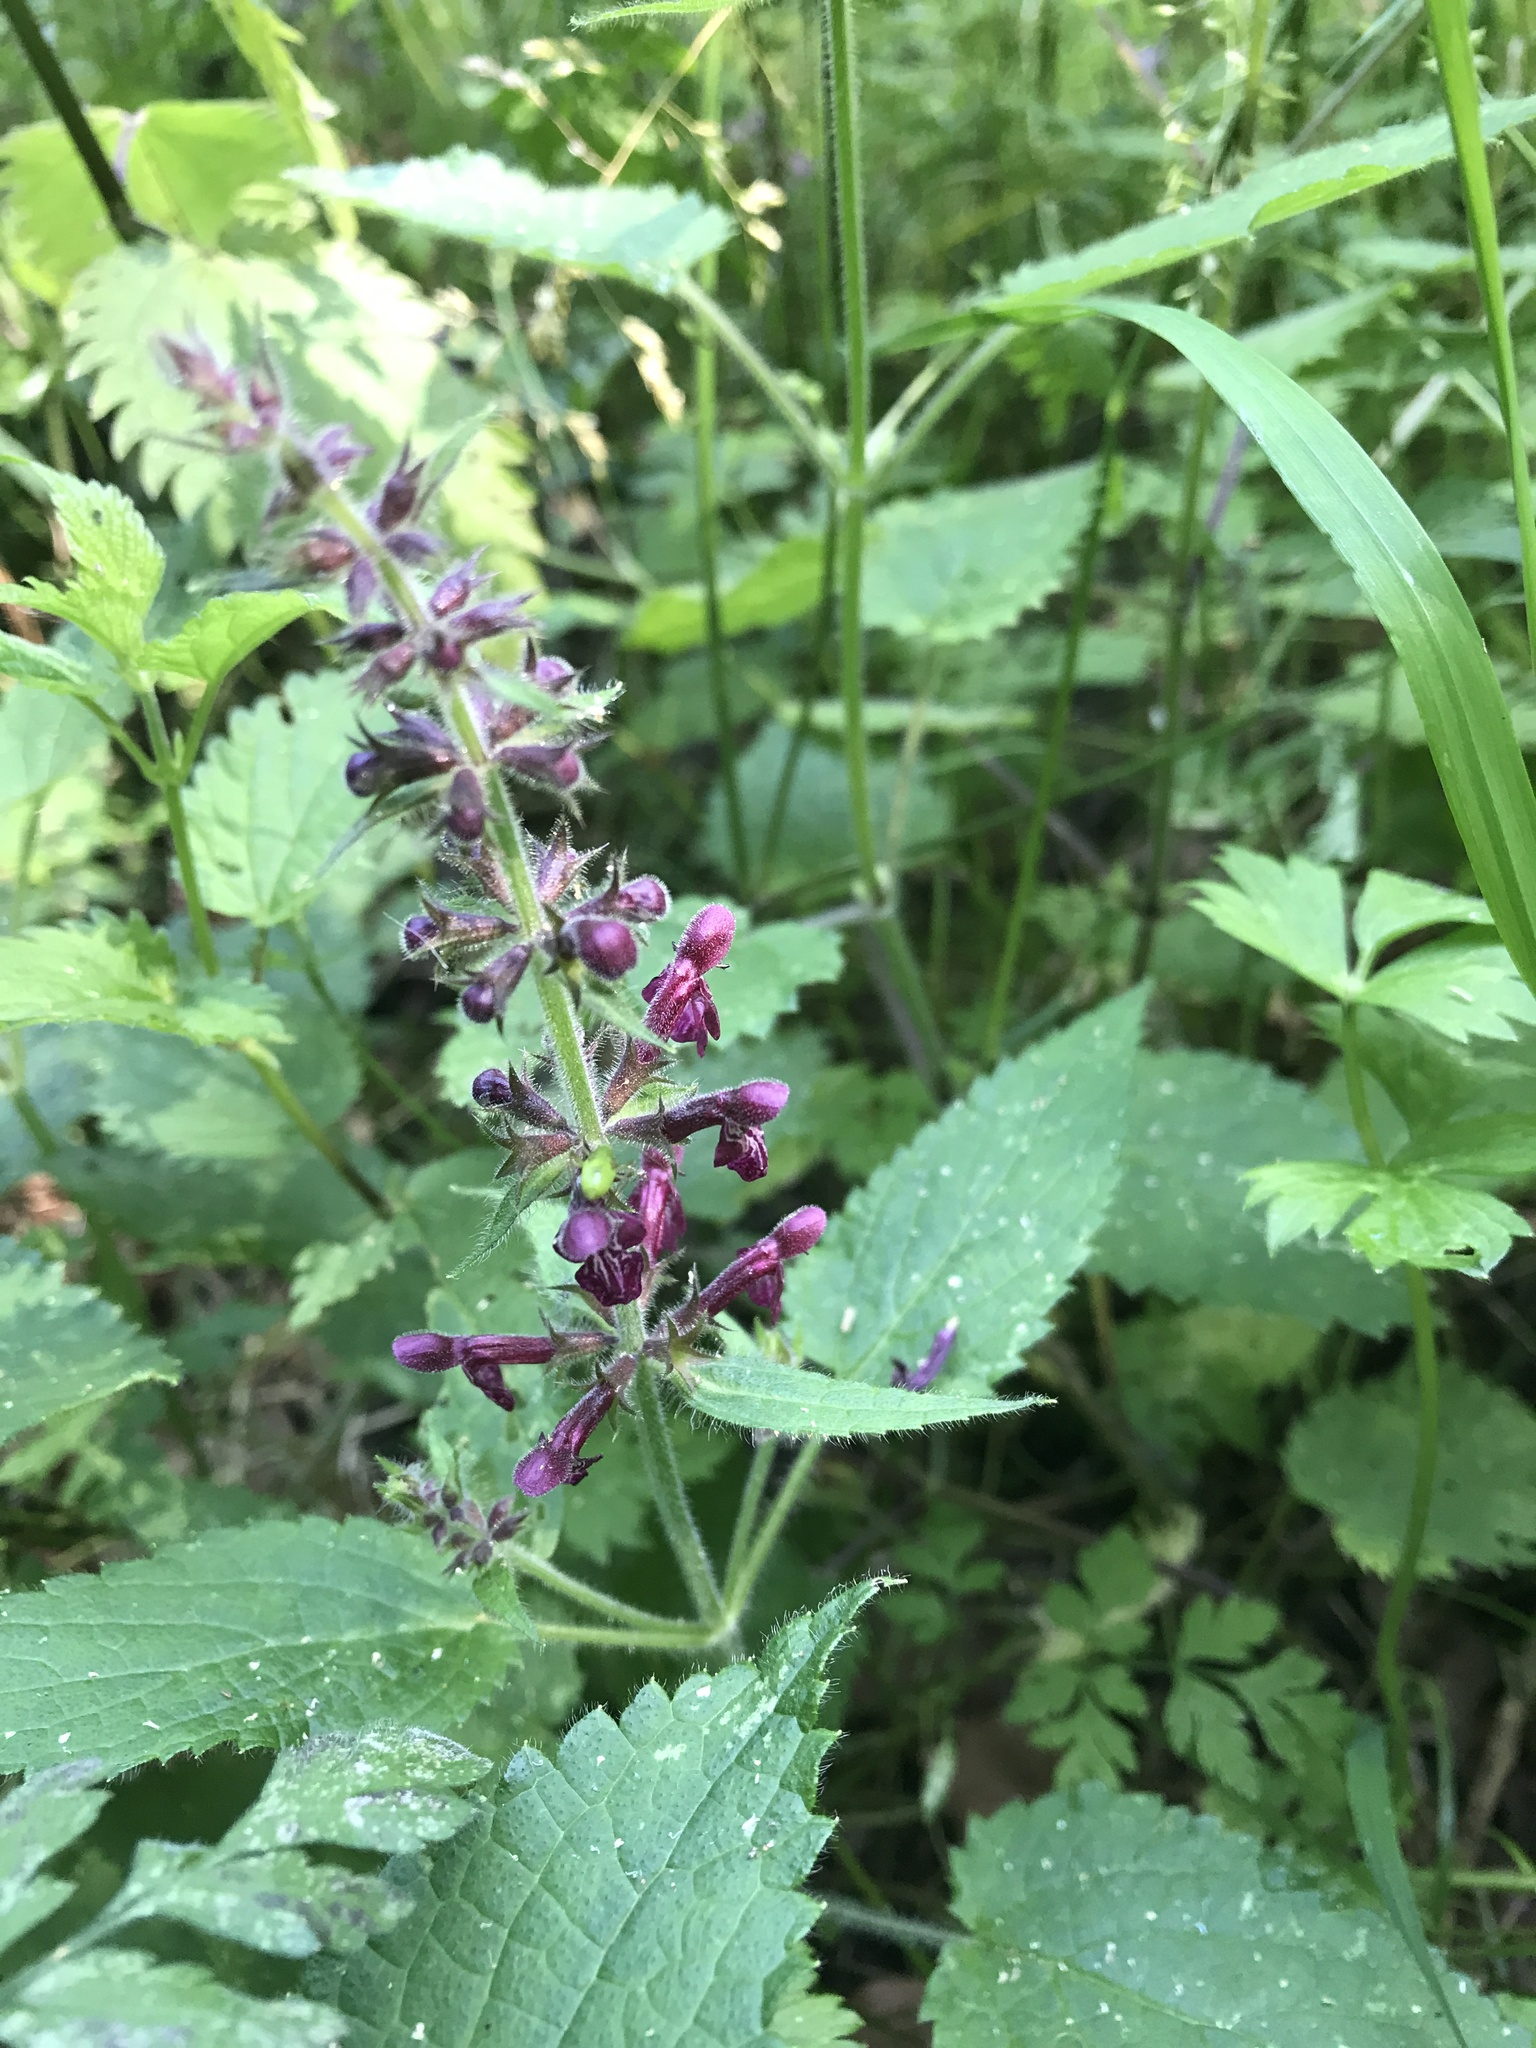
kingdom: Plantae
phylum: Tracheophyta
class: Magnoliopsida
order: Lamiales
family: Lamiaceae
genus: Stachys
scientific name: Stachys sylvatica
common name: Hedge woundwort
